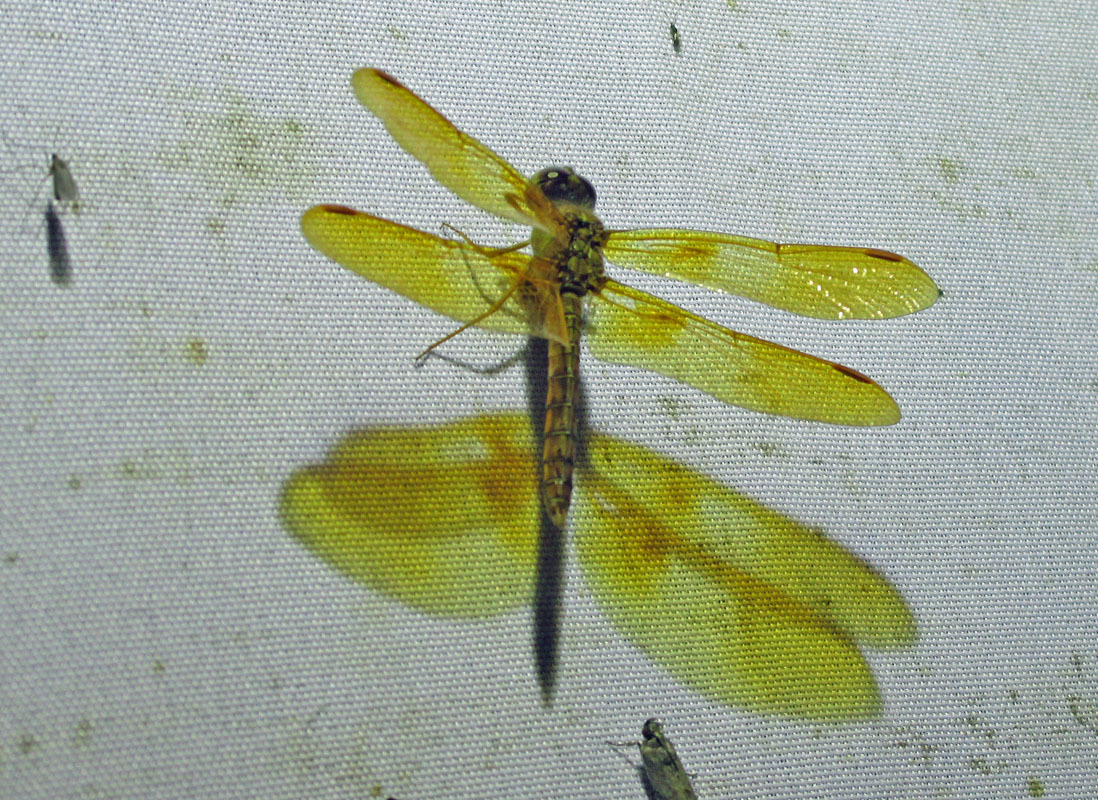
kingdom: Animalia
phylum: Arthropoda
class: Insecta
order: Odonata
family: Libellulidae
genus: Perithemis
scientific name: Perithemis intensa
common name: Mexican amberwing
